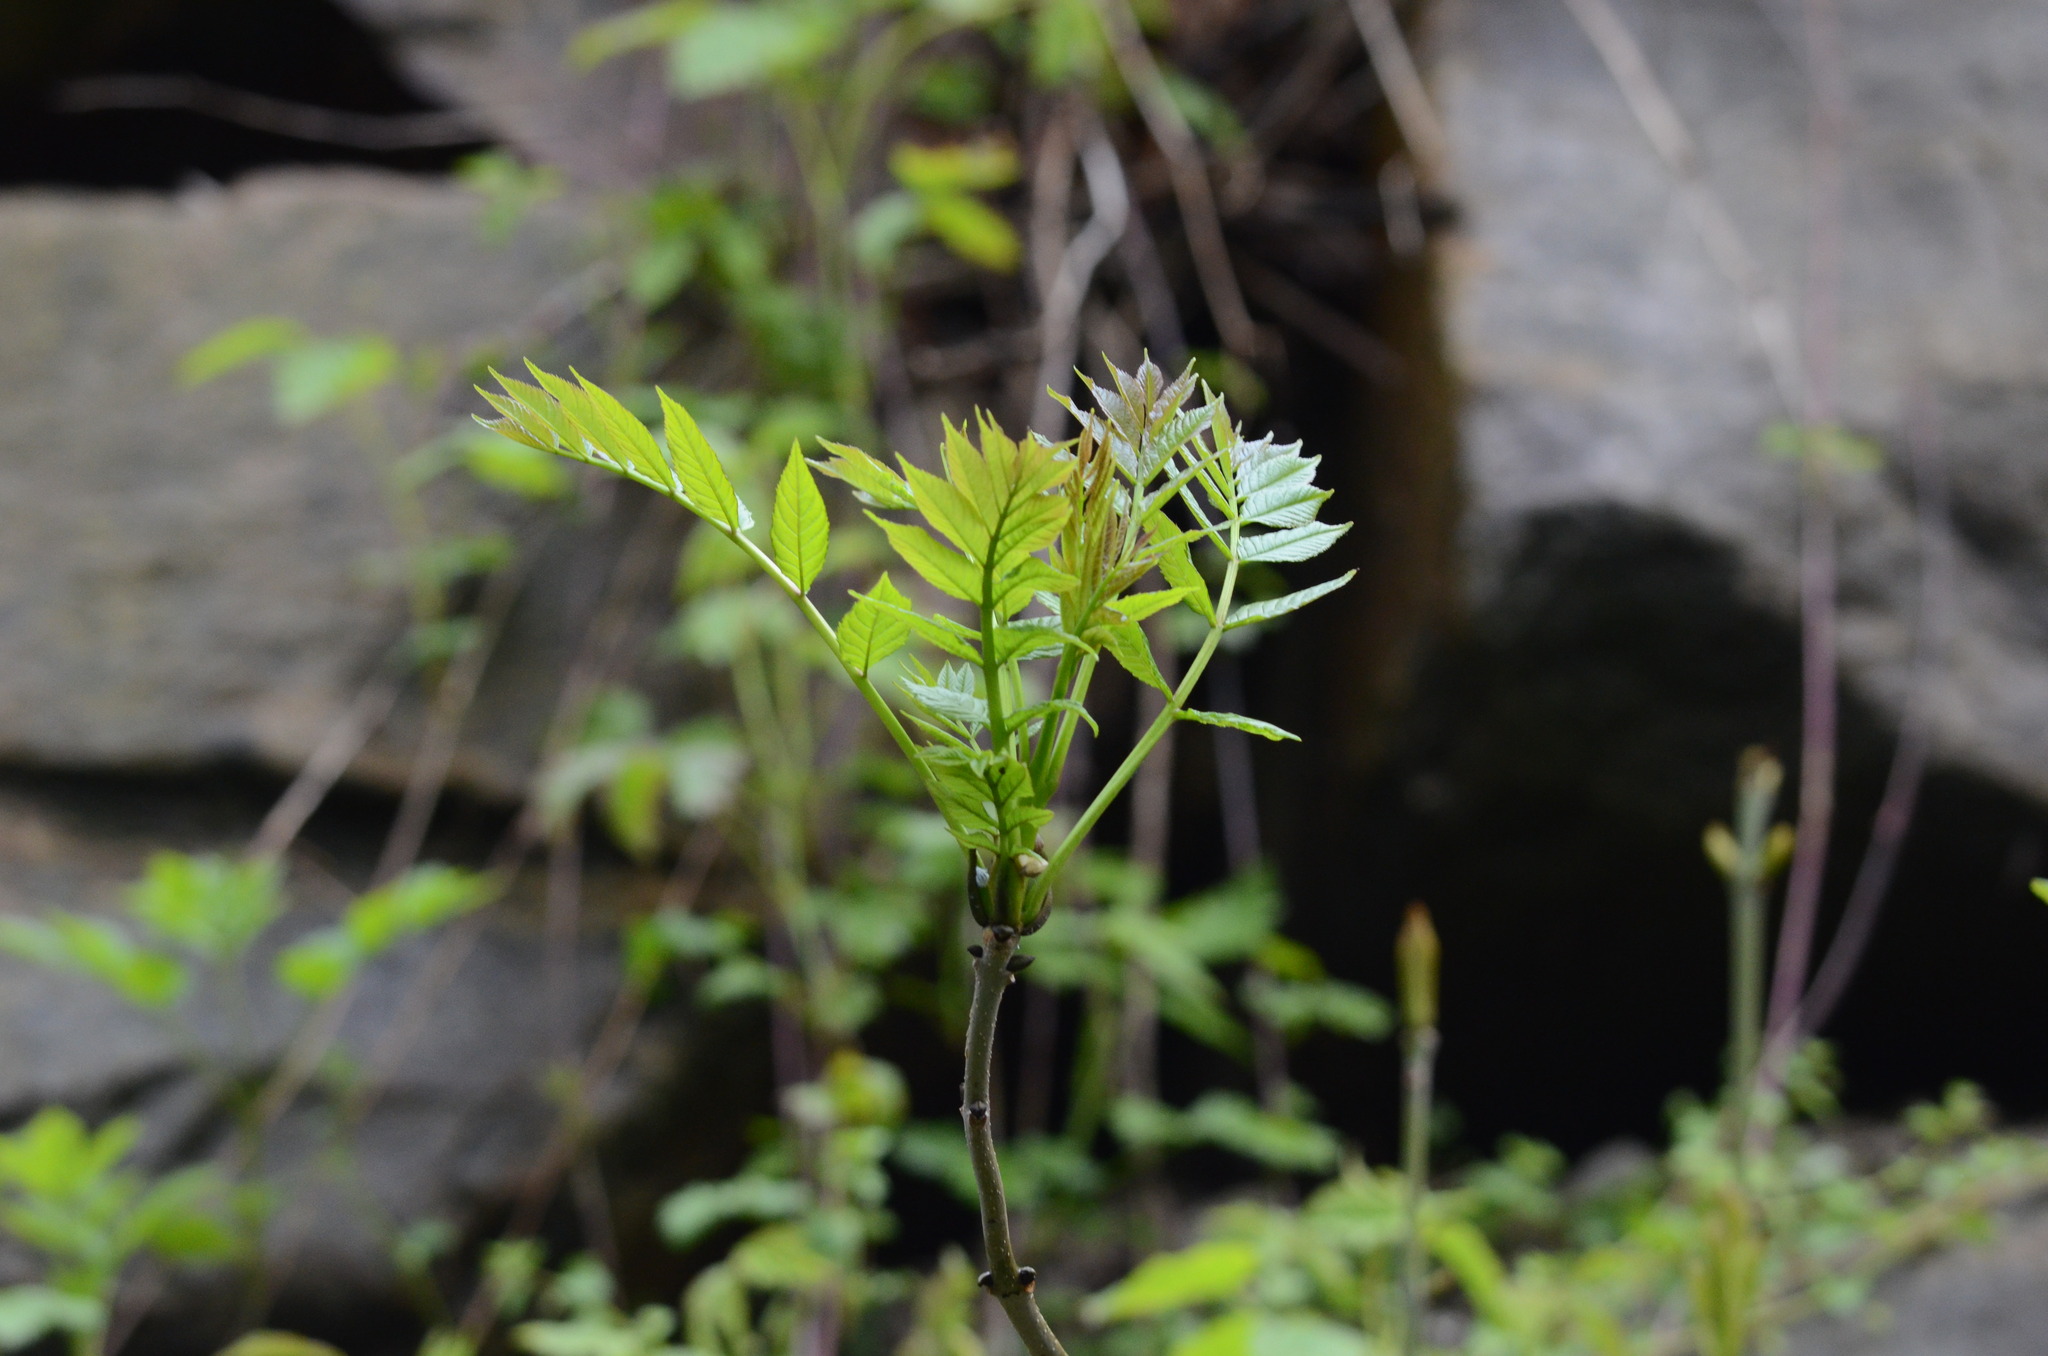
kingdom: Plantae
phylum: Tracheophyta
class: Magnoliopsida
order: Lamiales
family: Oleaceae
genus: Fraxinus
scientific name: Fraxinus excelsior
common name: European ash
